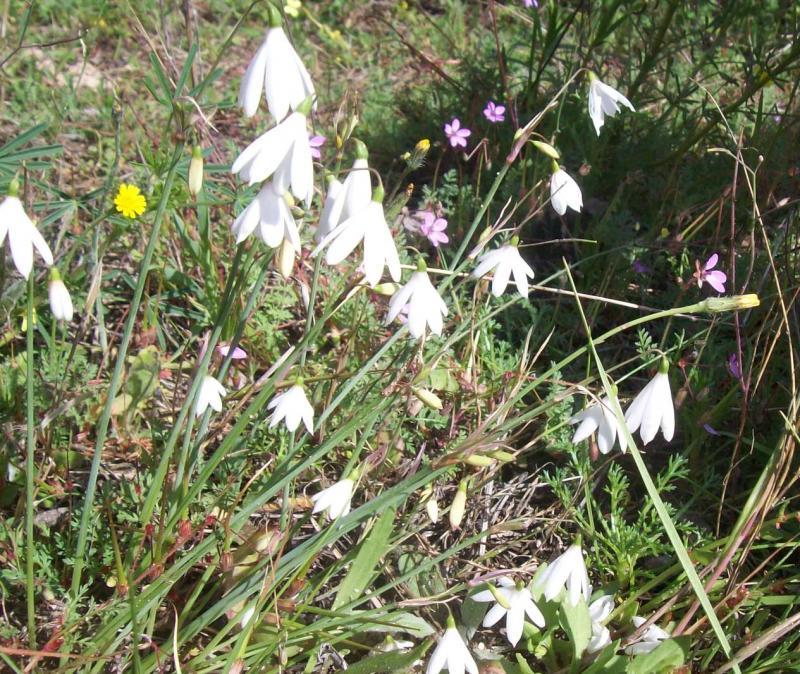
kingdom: Plantae
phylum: Tracheophyta
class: Liliopsida
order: Asparagales
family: Amaryllidaceae
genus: Acis
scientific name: Acis trichophylla
